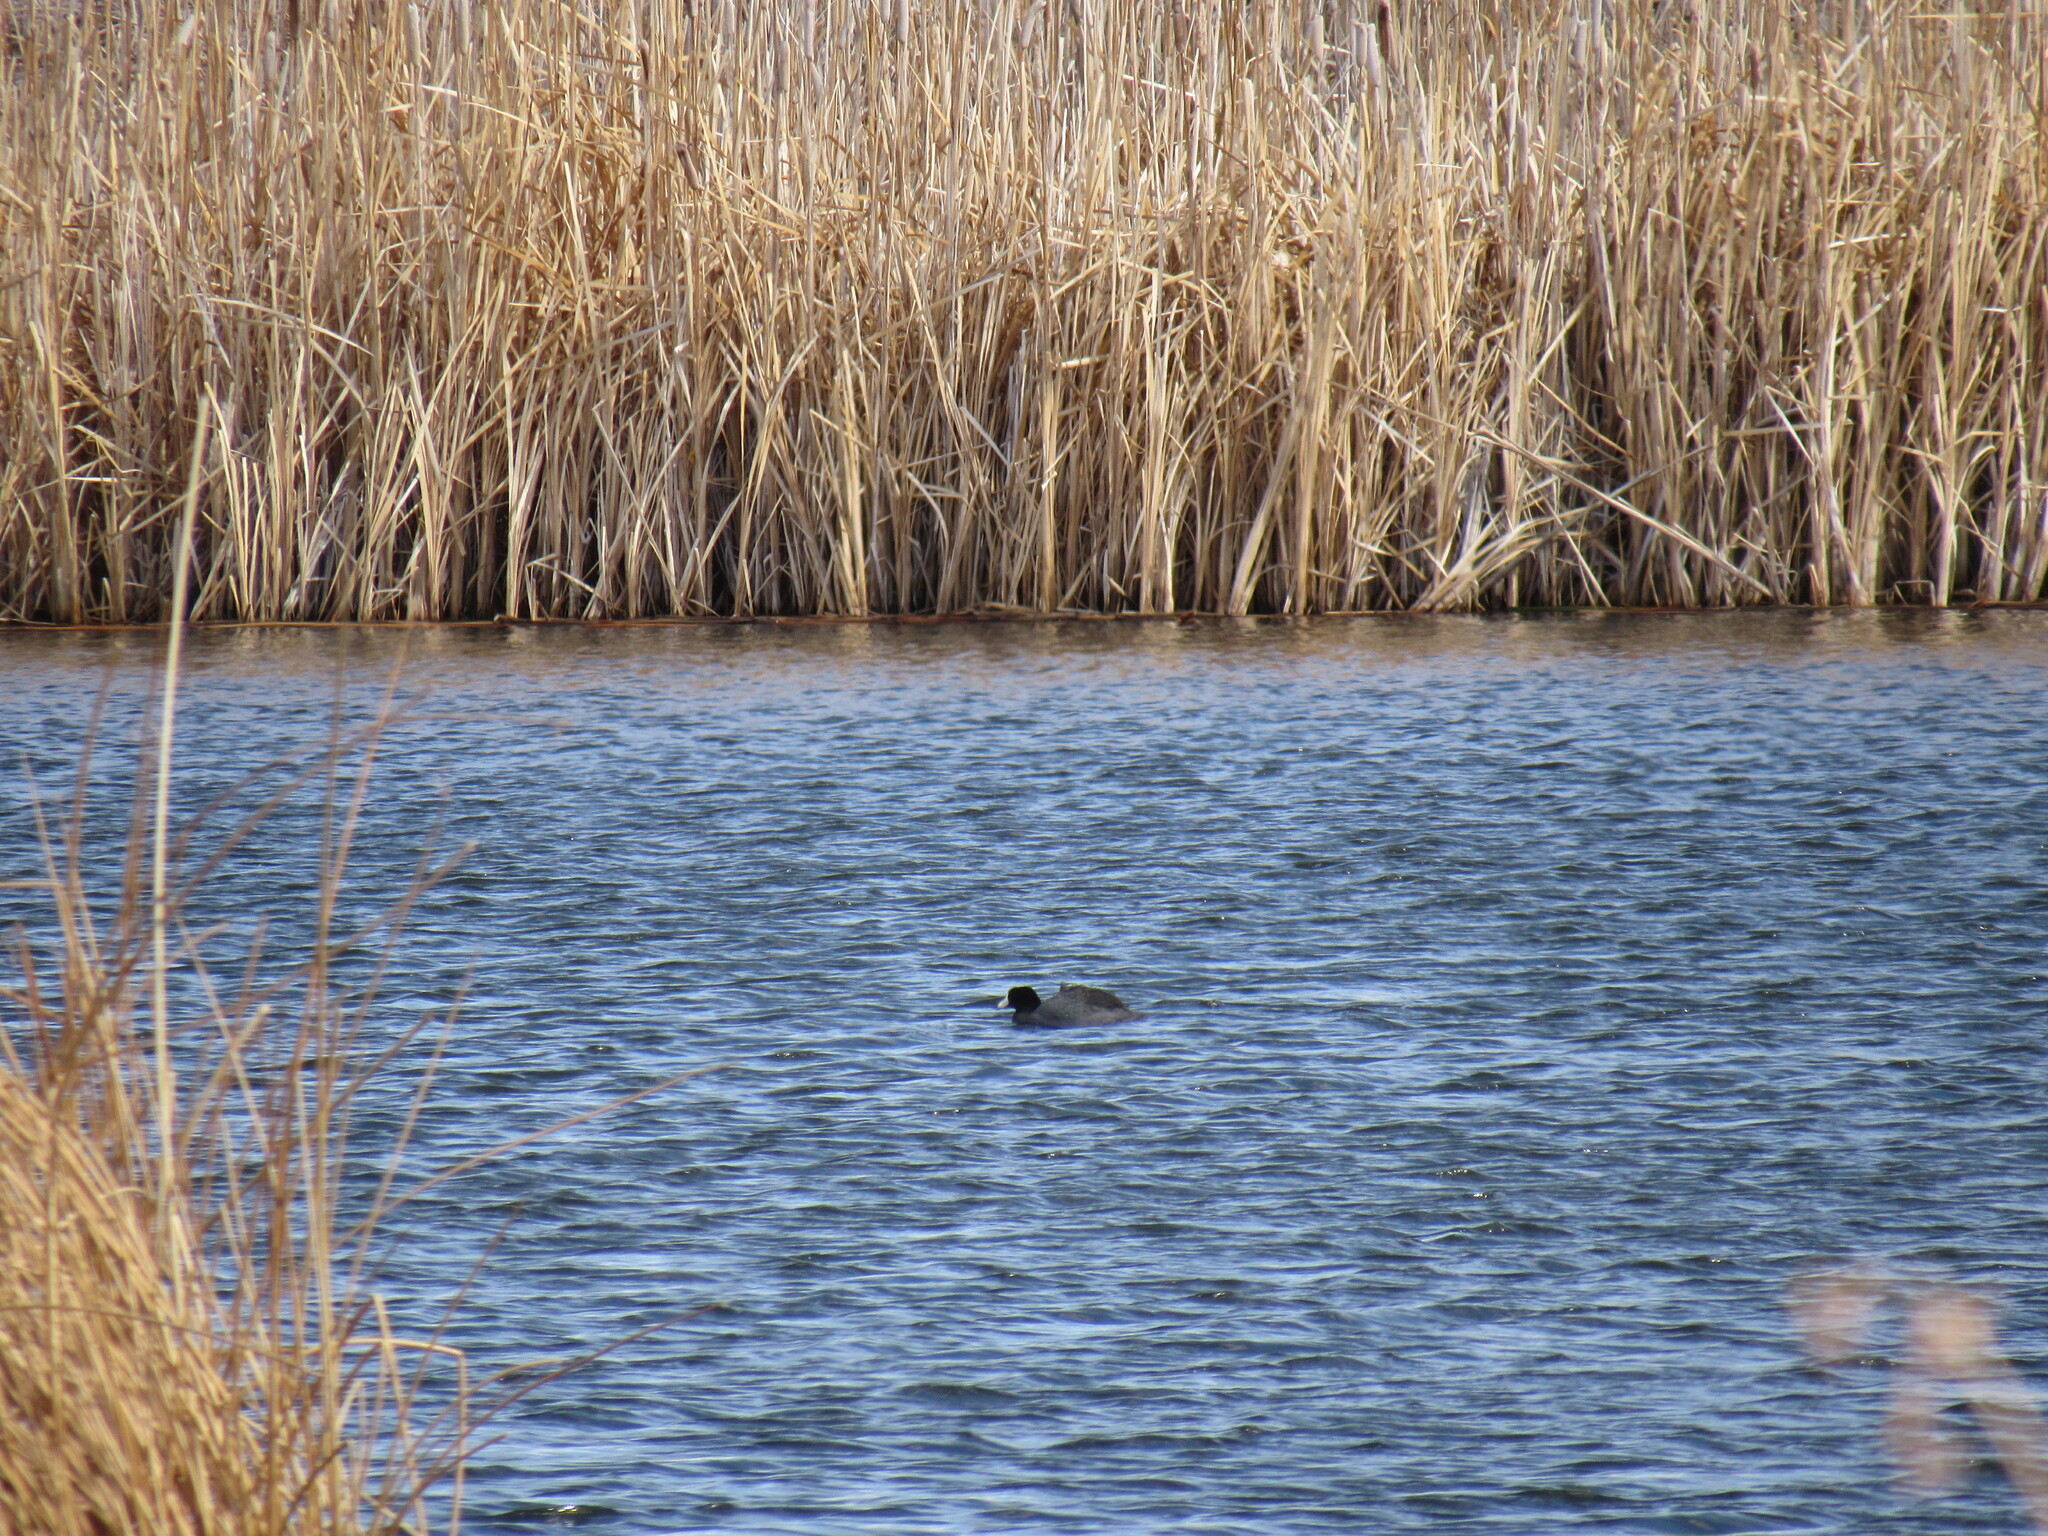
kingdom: Animalia
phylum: Chordata
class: Aves
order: Gruiformes
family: Rallidae
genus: Fulica
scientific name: Fulica americana
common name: American coot
